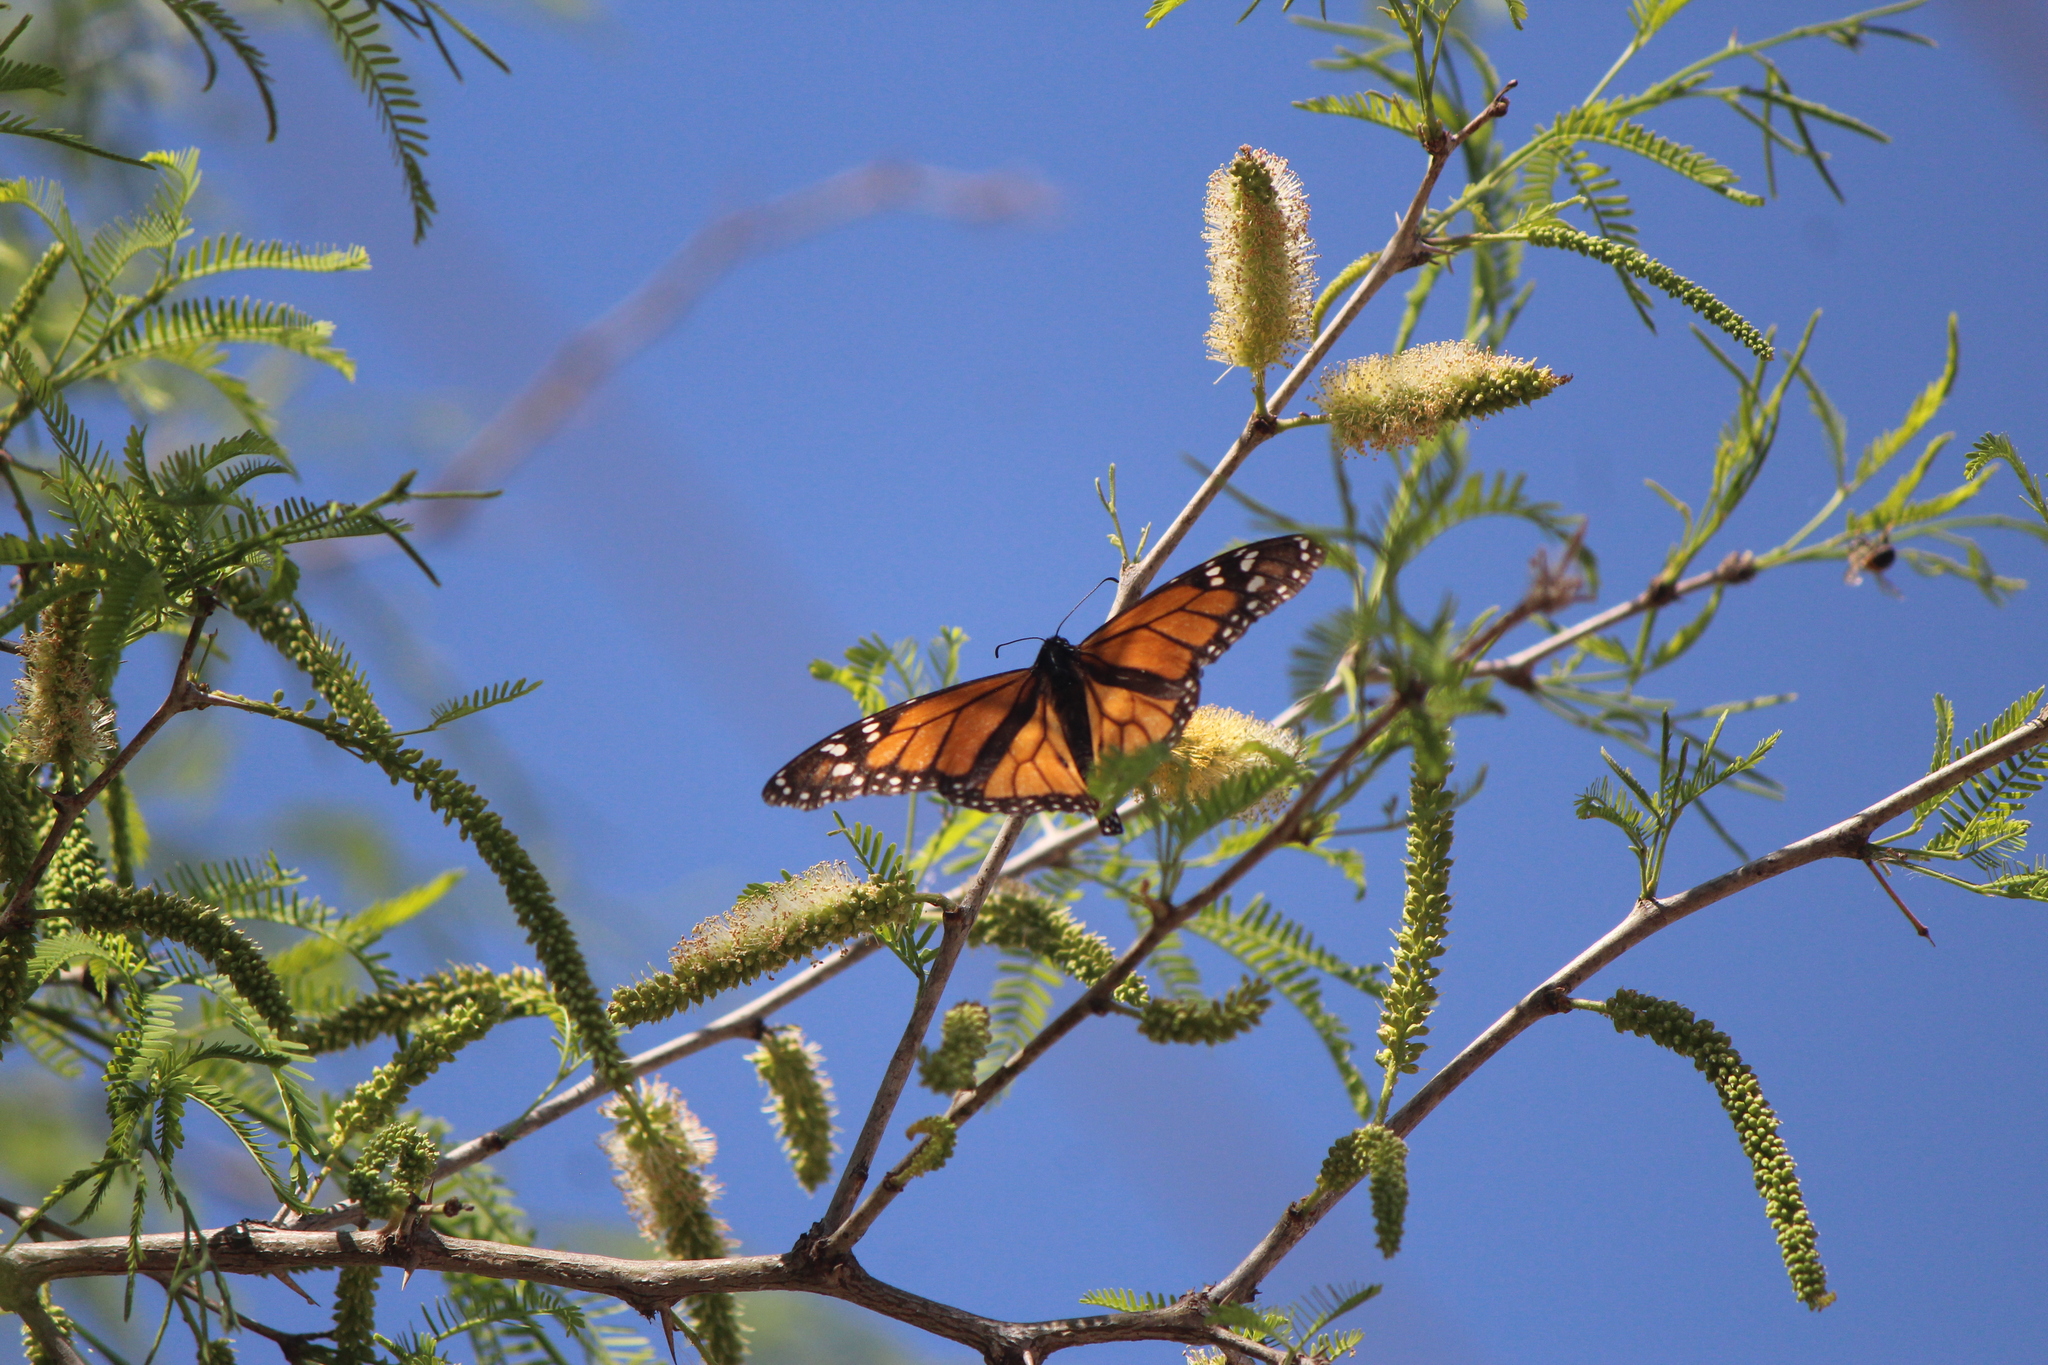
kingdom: Animalia
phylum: Arthropoda
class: Insecta
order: Lepidoptera
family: Nymphalidae
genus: Danaus
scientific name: Danaus plexippus
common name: Monarch
